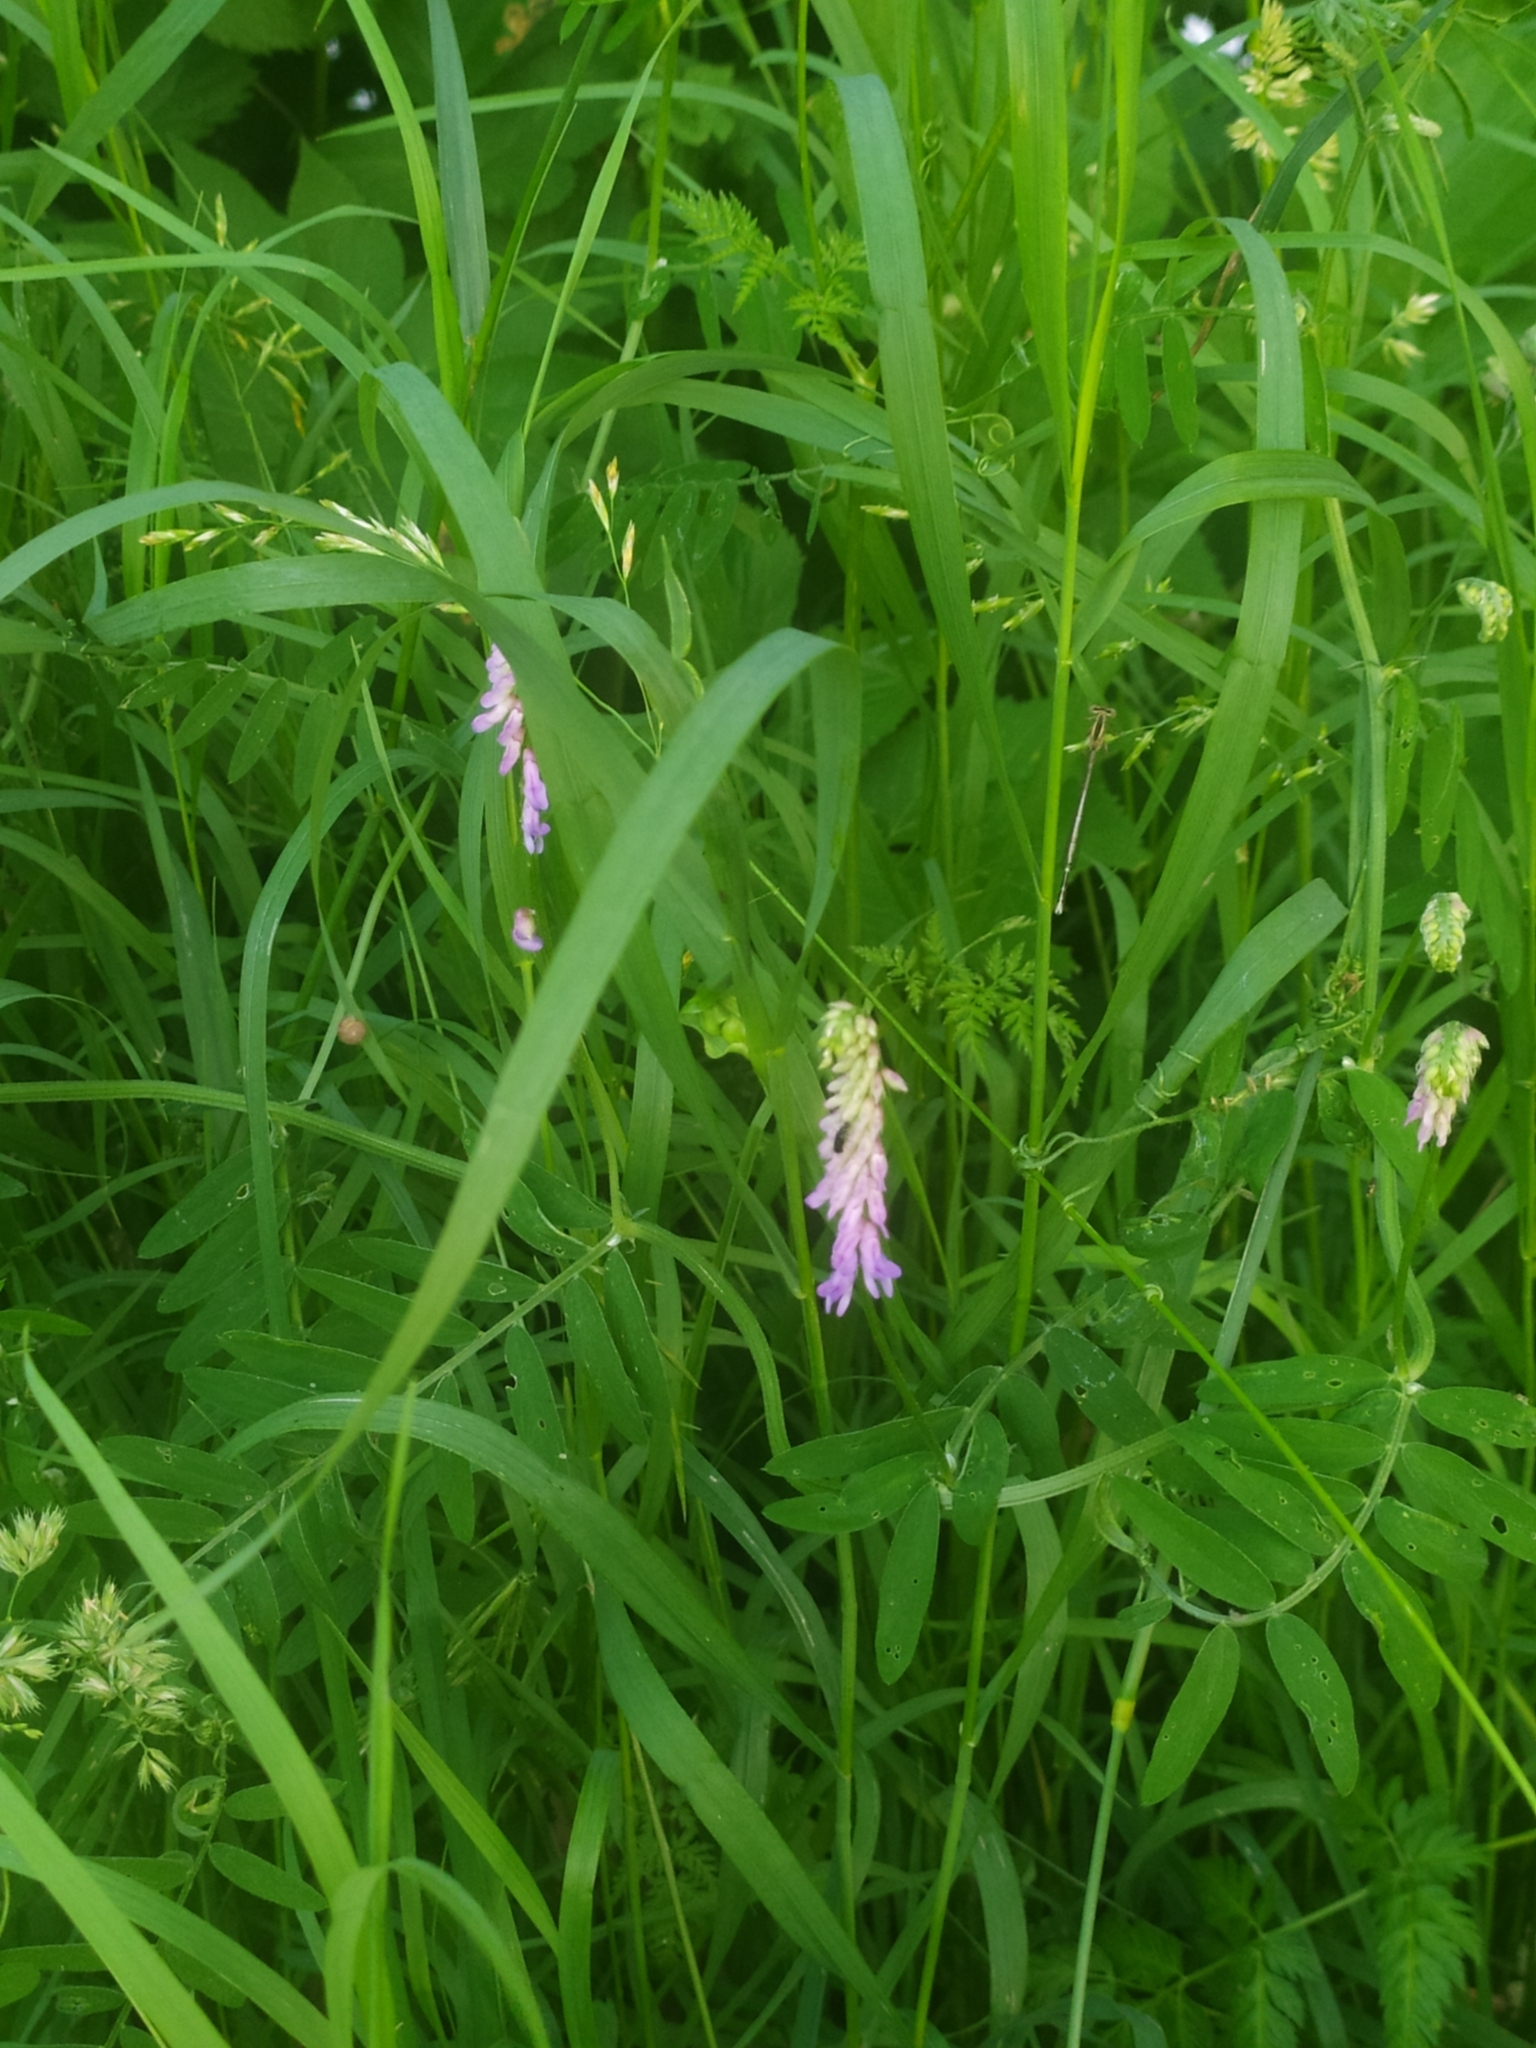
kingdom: Plantae
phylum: Tracheophyta
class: Magnoliopsida
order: Fabales
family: Fabaceae
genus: Vicia
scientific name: Vicia cracca
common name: Bird vetch
